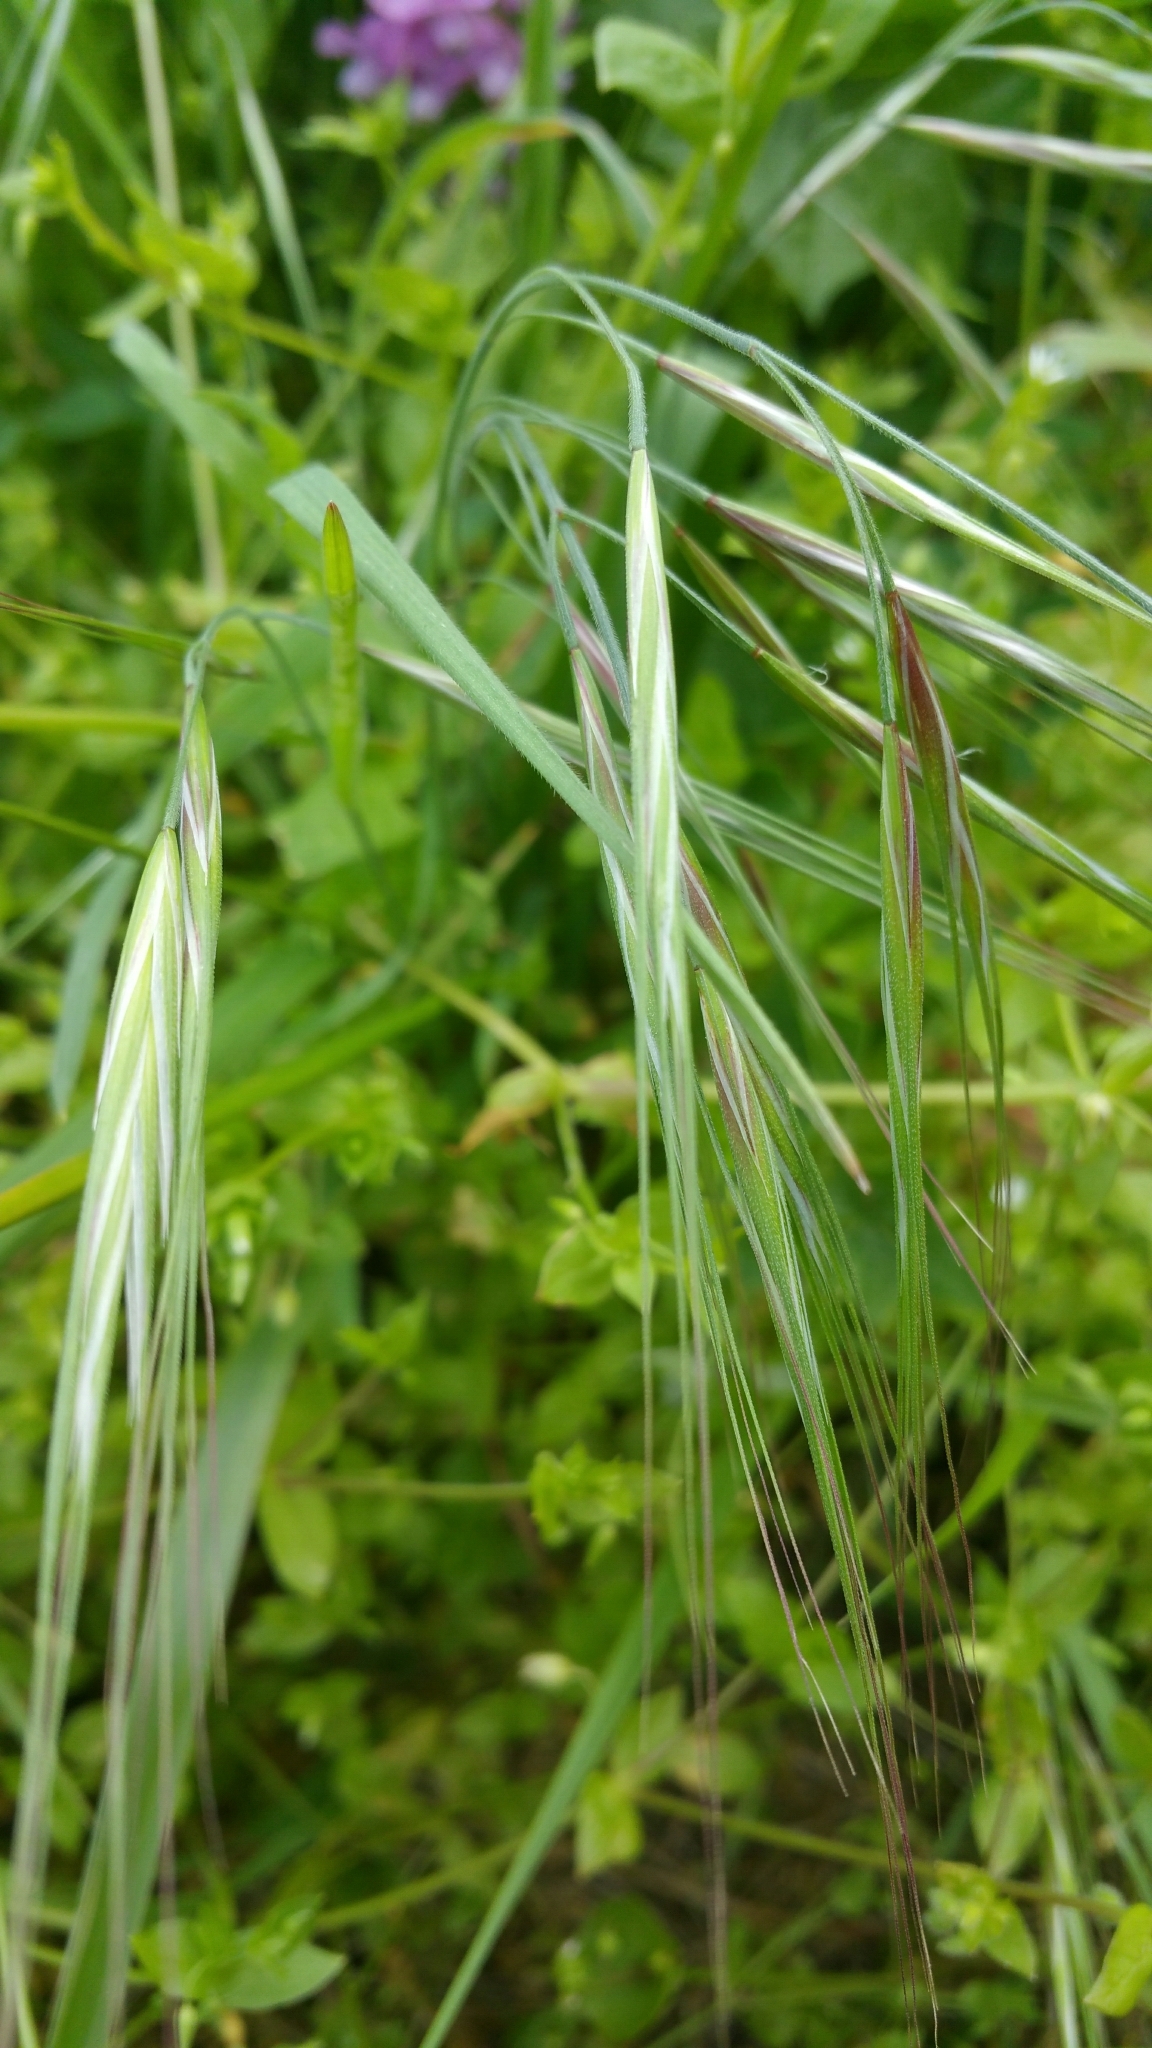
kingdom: Plantae
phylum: Tracheophyta
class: Liliopsida
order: Poales
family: Poaceae
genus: Bromus
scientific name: Bromus diandrus
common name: Ripgut brome
